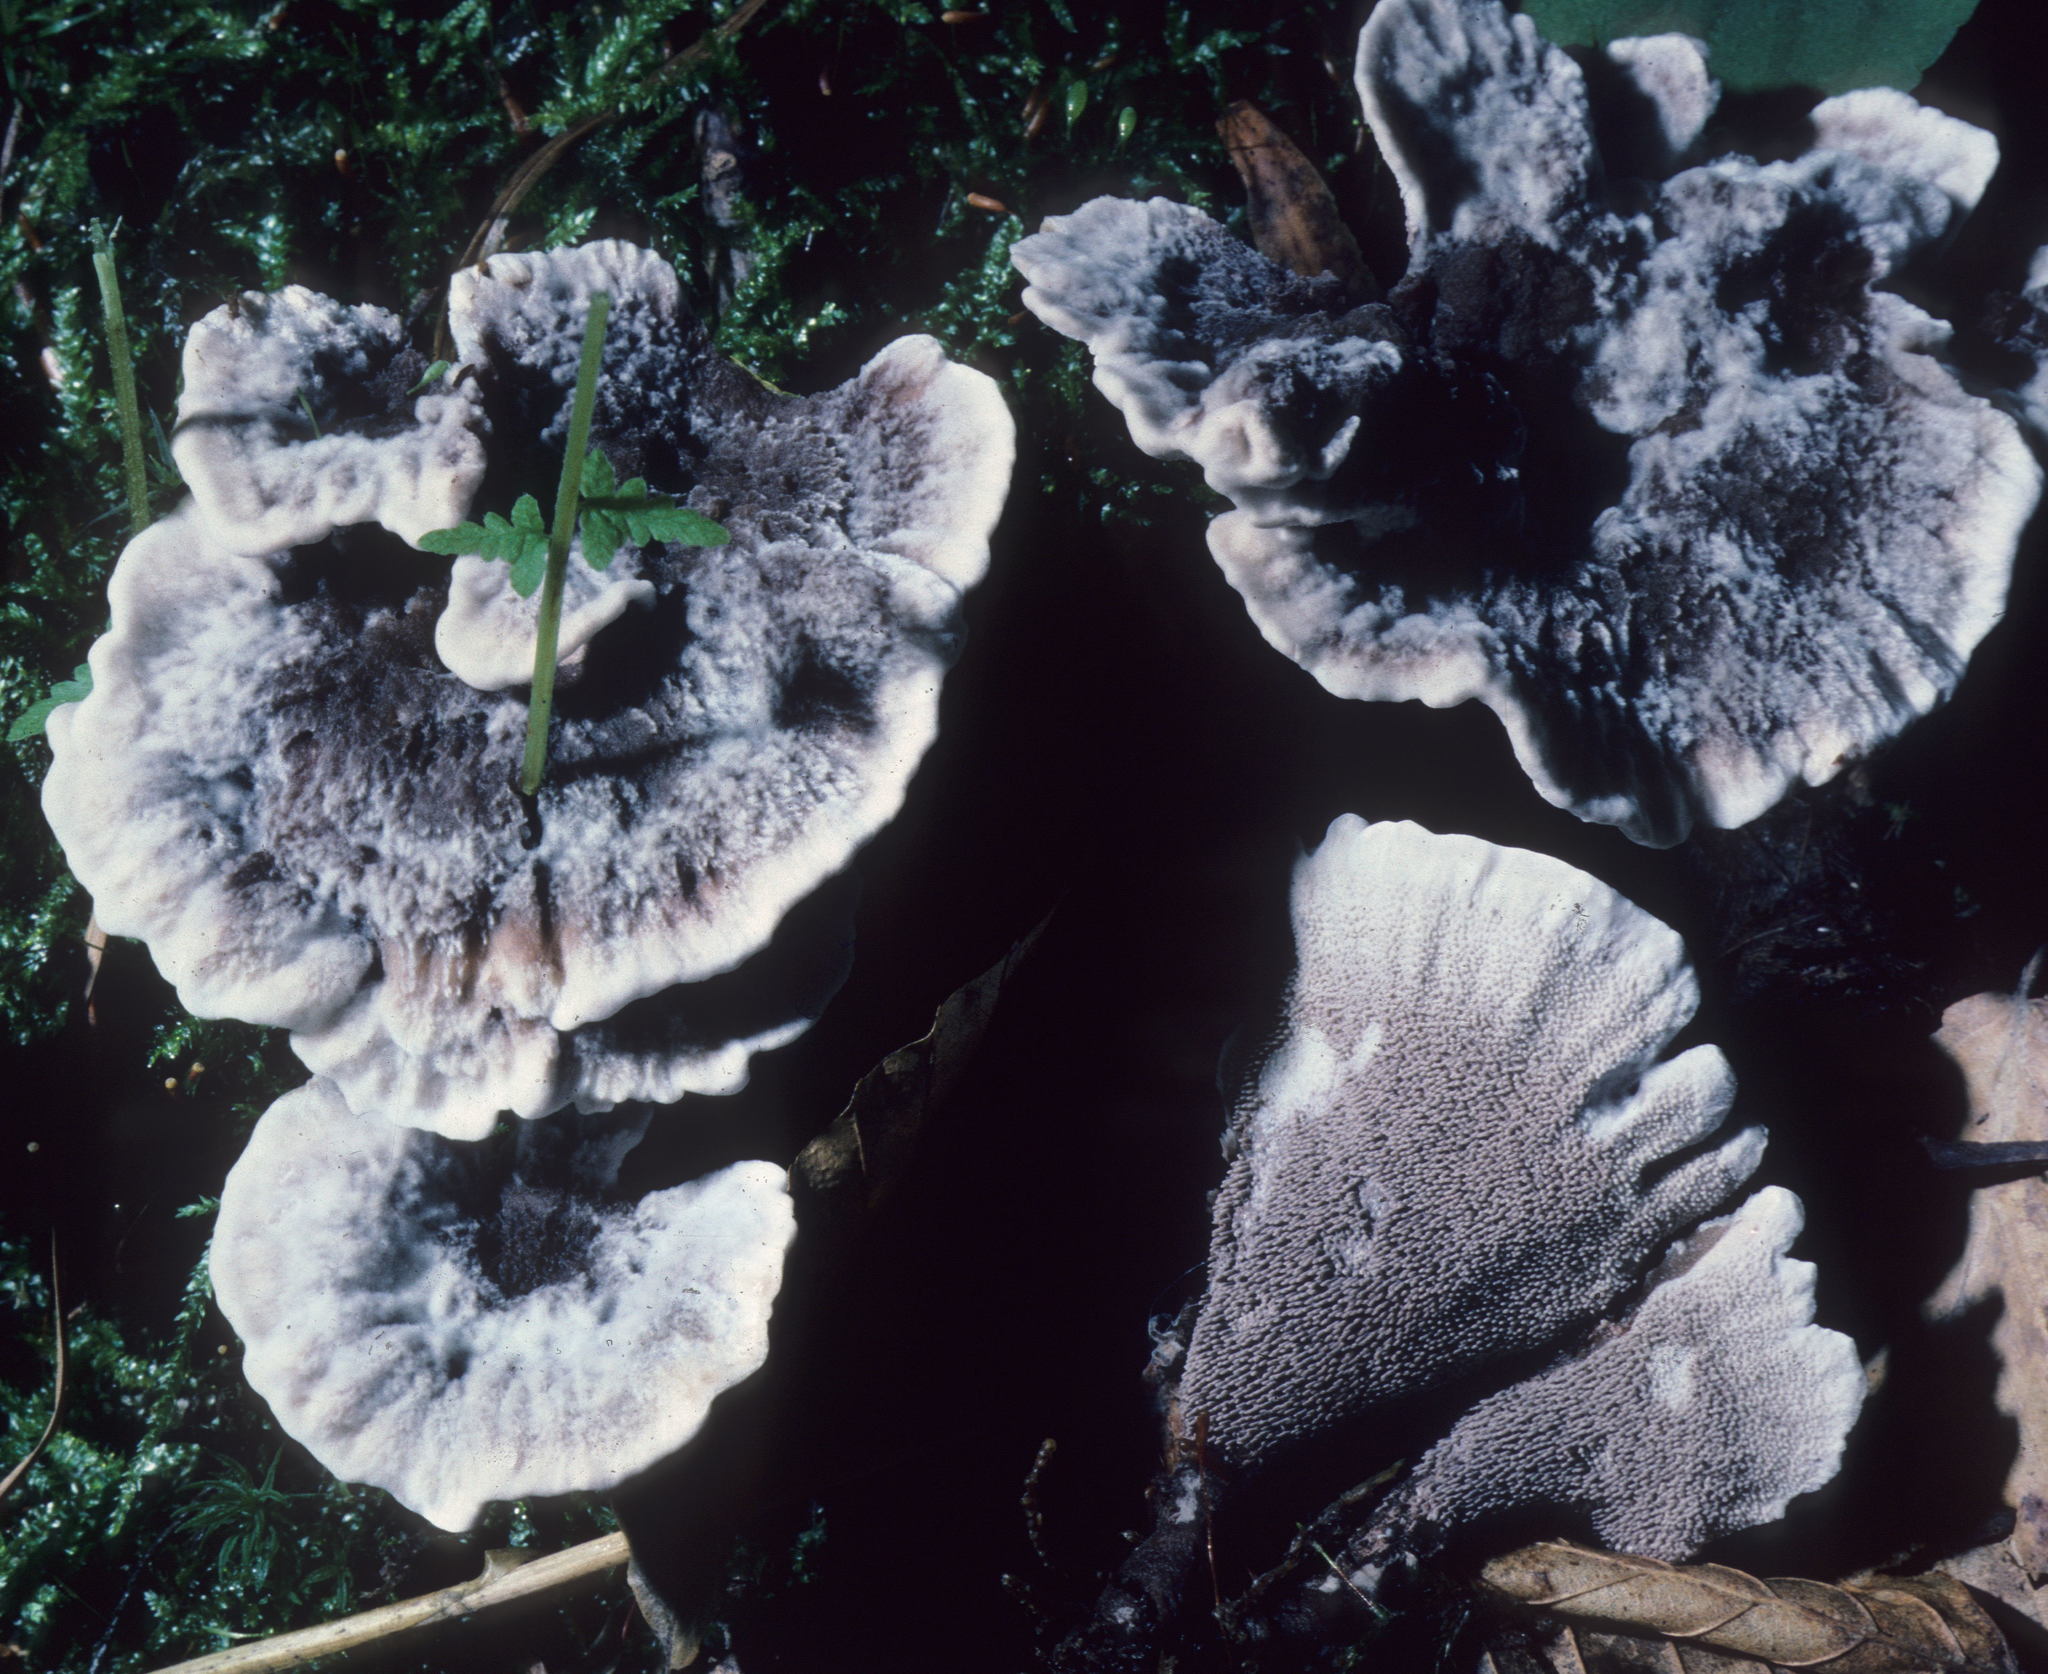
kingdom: Fungi
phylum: Basidiomycota
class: Agaricomycetes
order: Thelephorales
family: Thelephoraceae
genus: Phellodon
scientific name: Phellodon niger
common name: Black tooth
